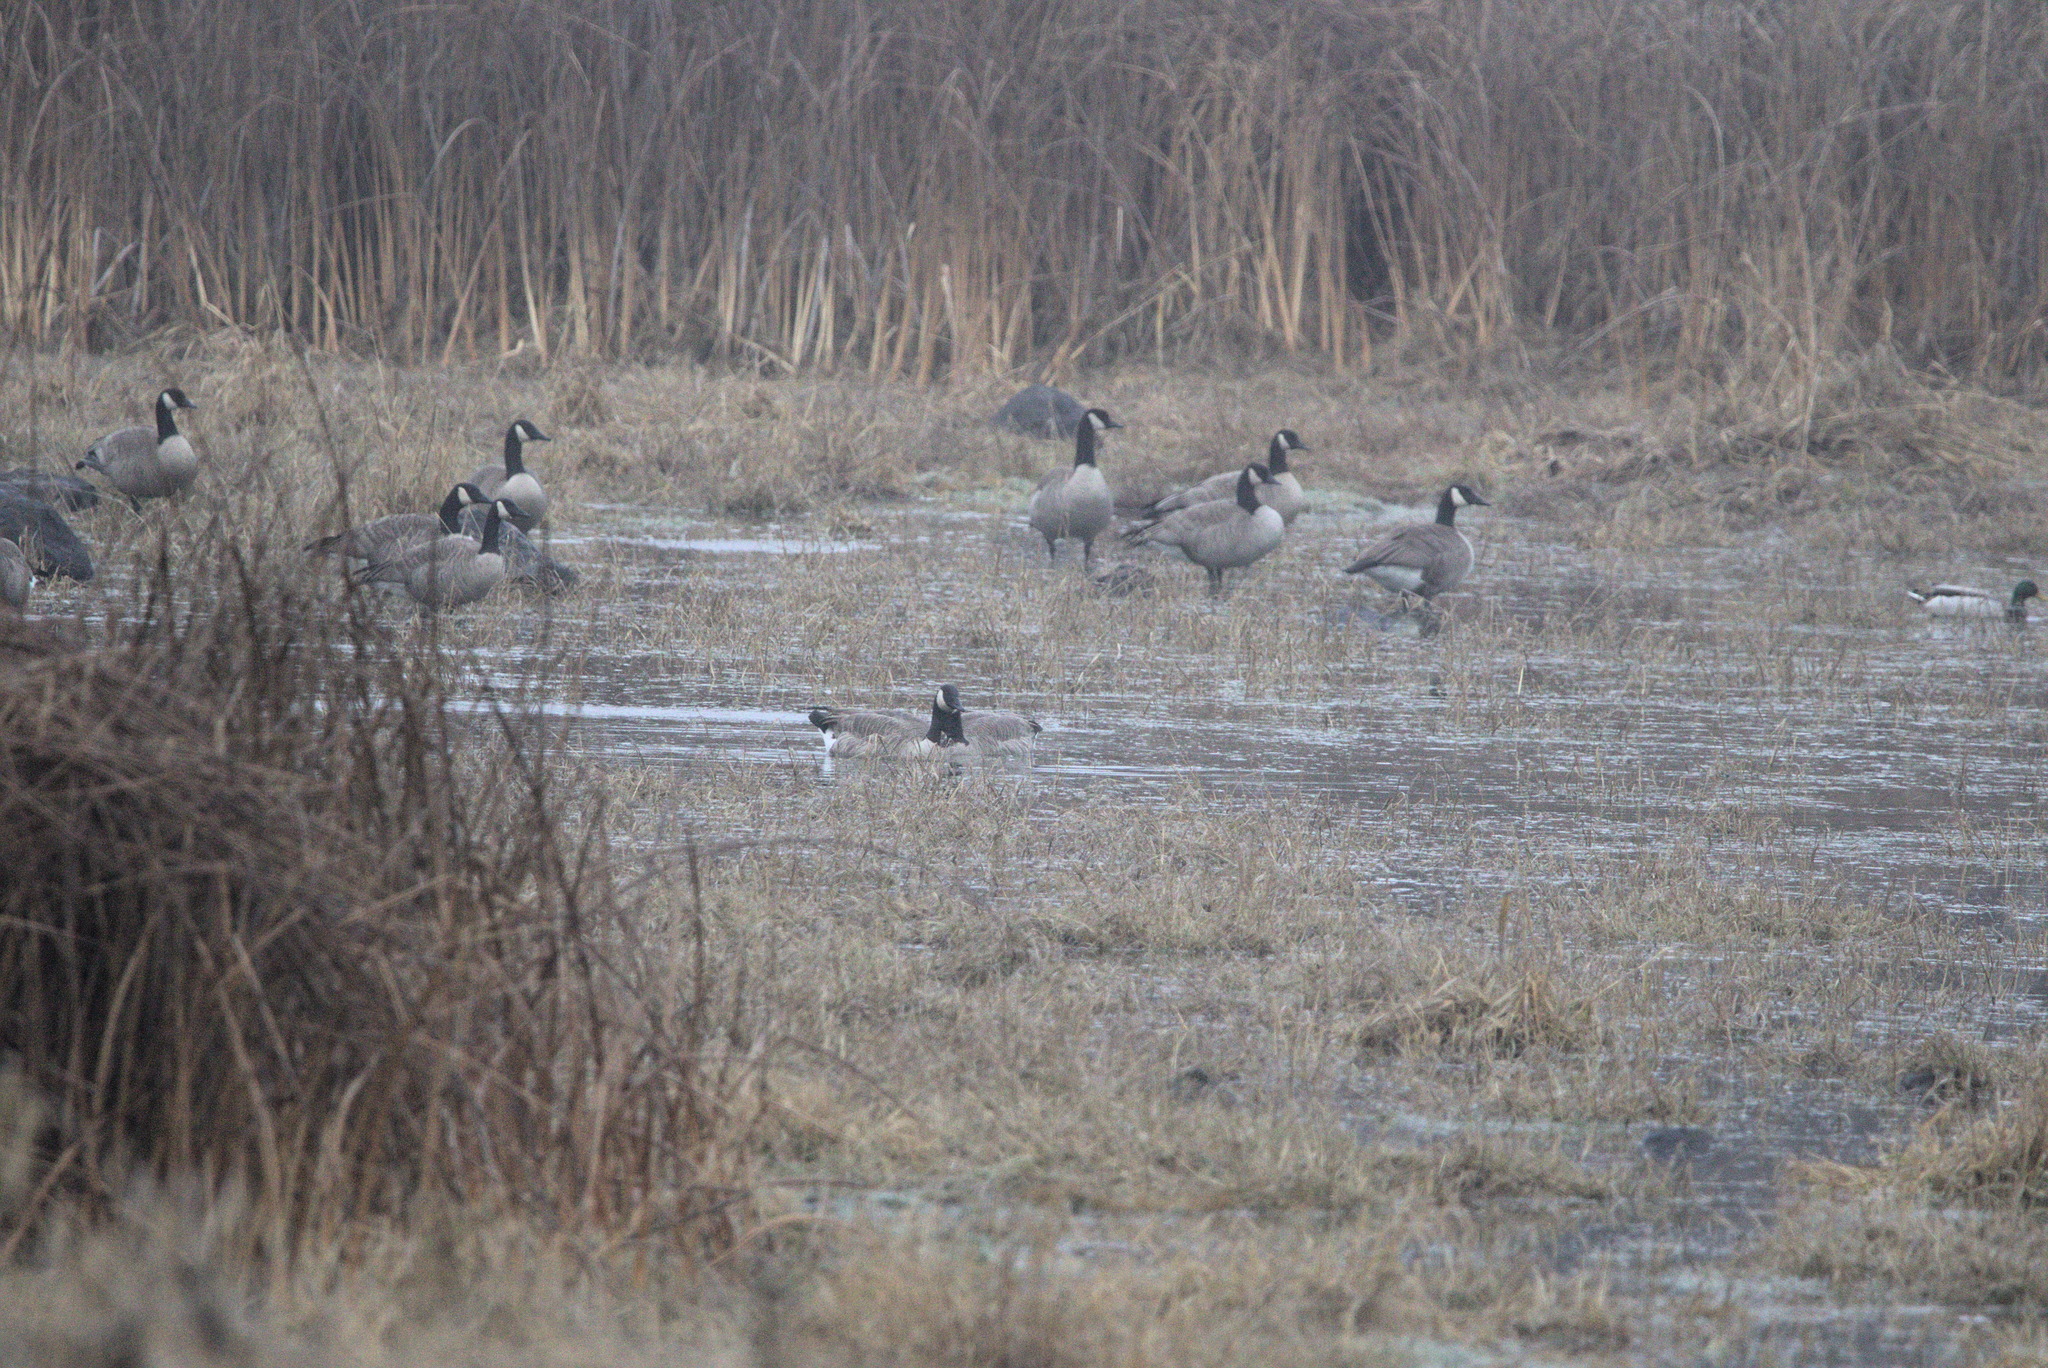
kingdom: Animalia
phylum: Chordata
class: Aves
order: Anseriformes
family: Anatidae
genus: Branta
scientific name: Branta canadensis
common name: Canada goose
